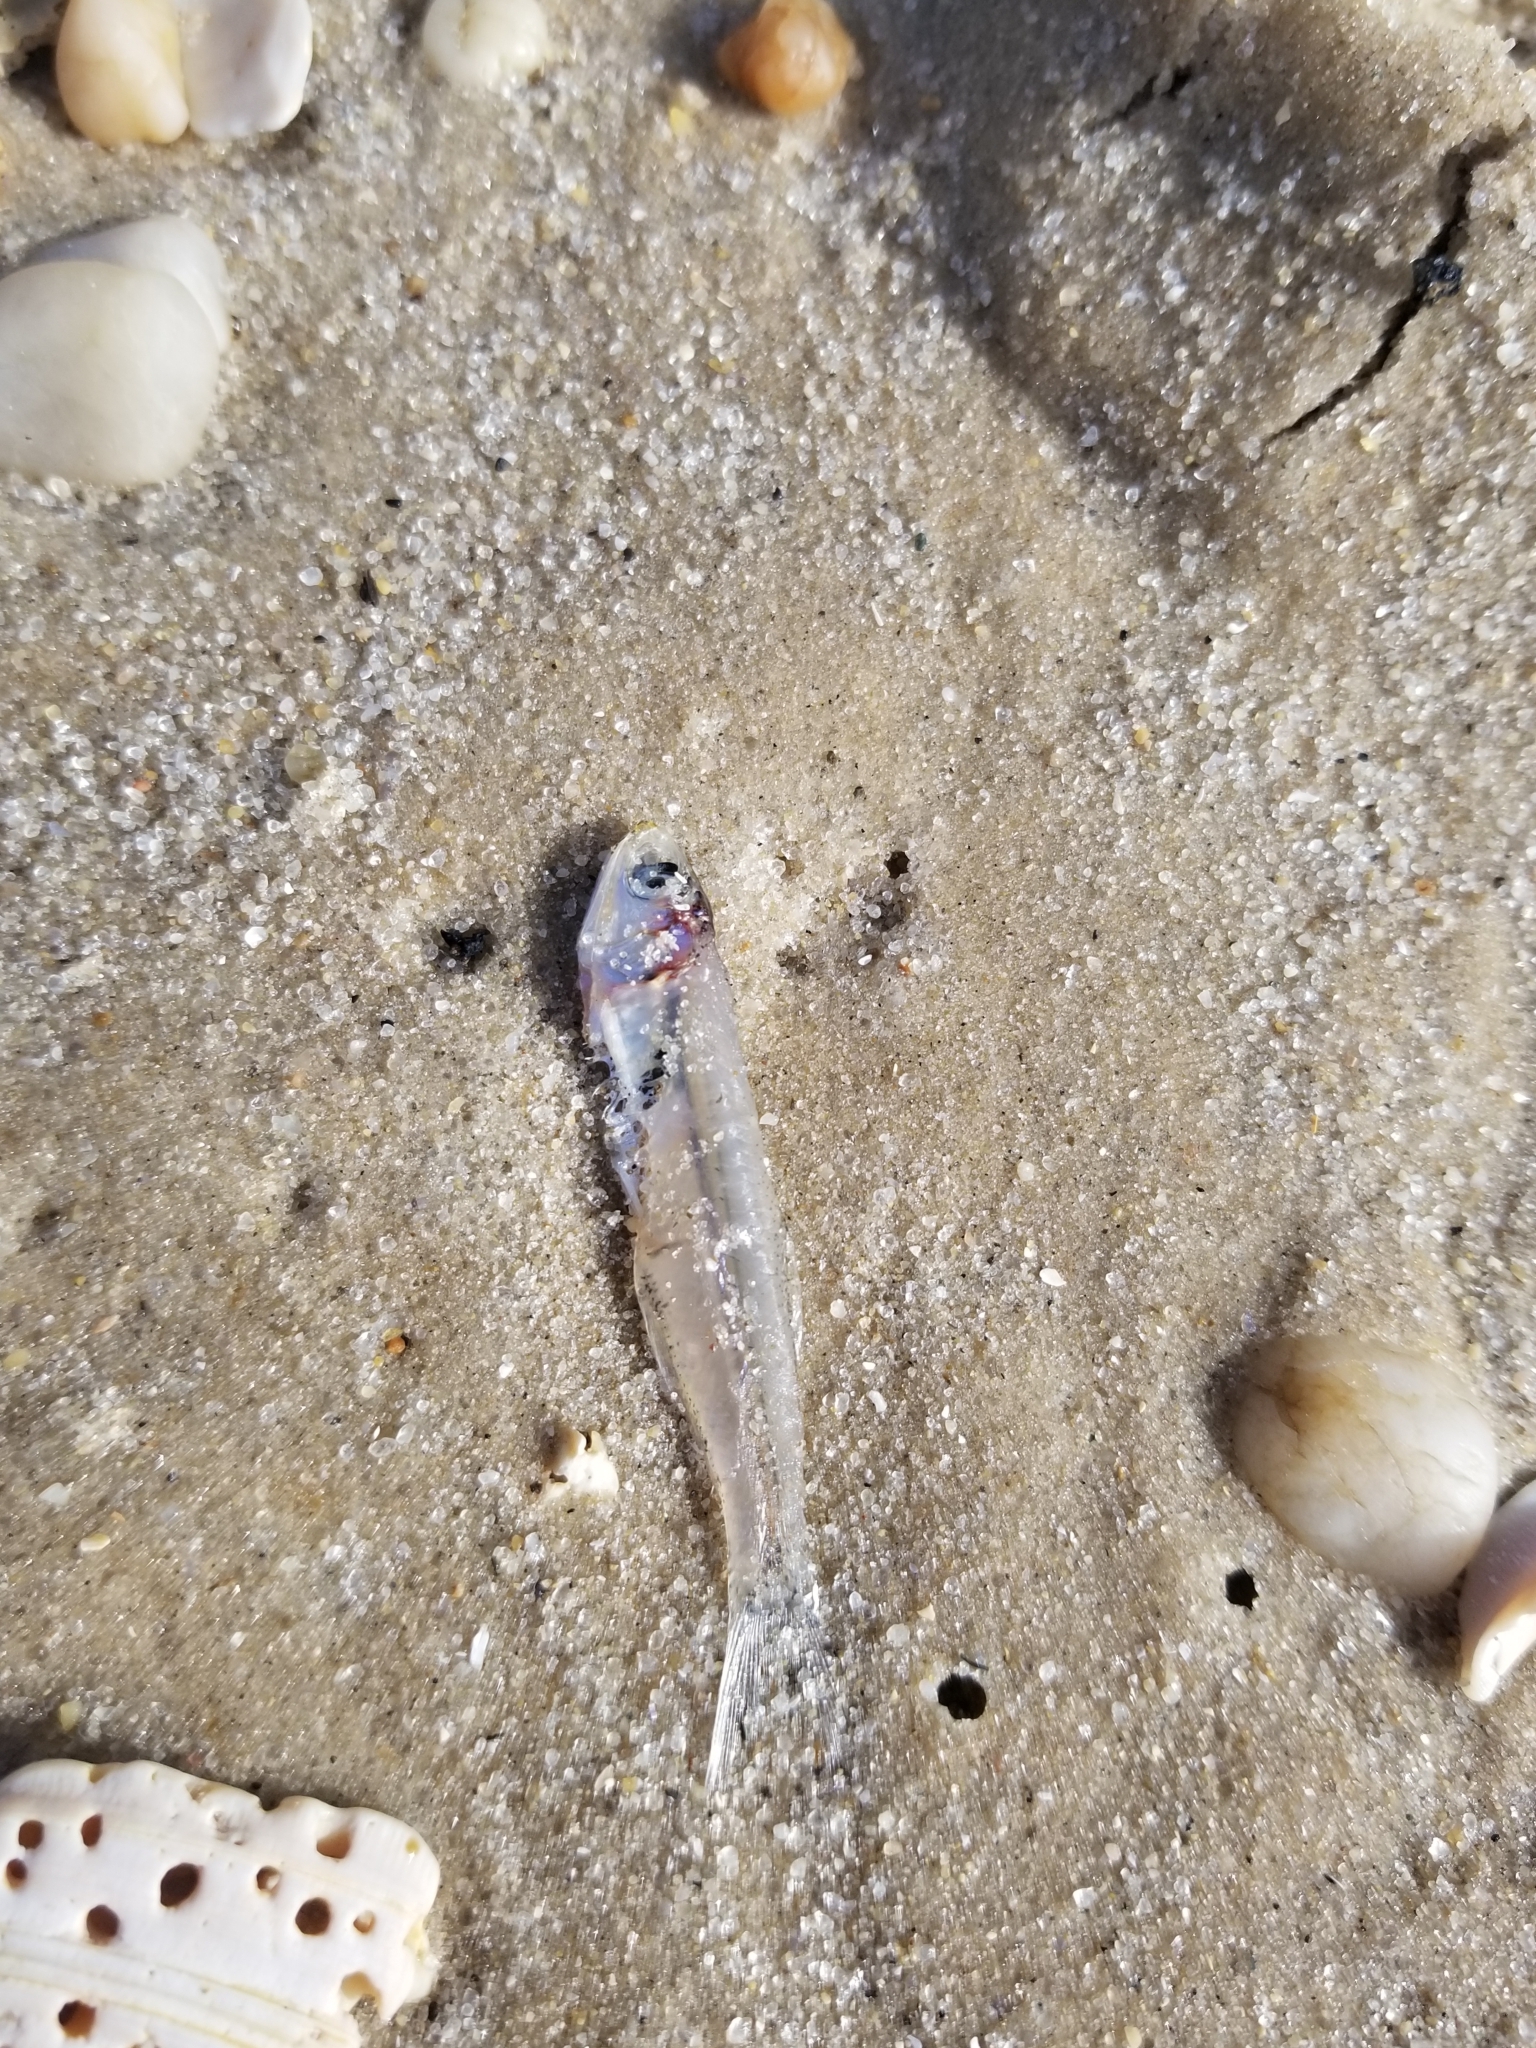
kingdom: Animalia
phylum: Chordata
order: Clupeiformes
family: Engraulidae
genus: Anchoa
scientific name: Anchoa mitchilli
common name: Bay anchovy
